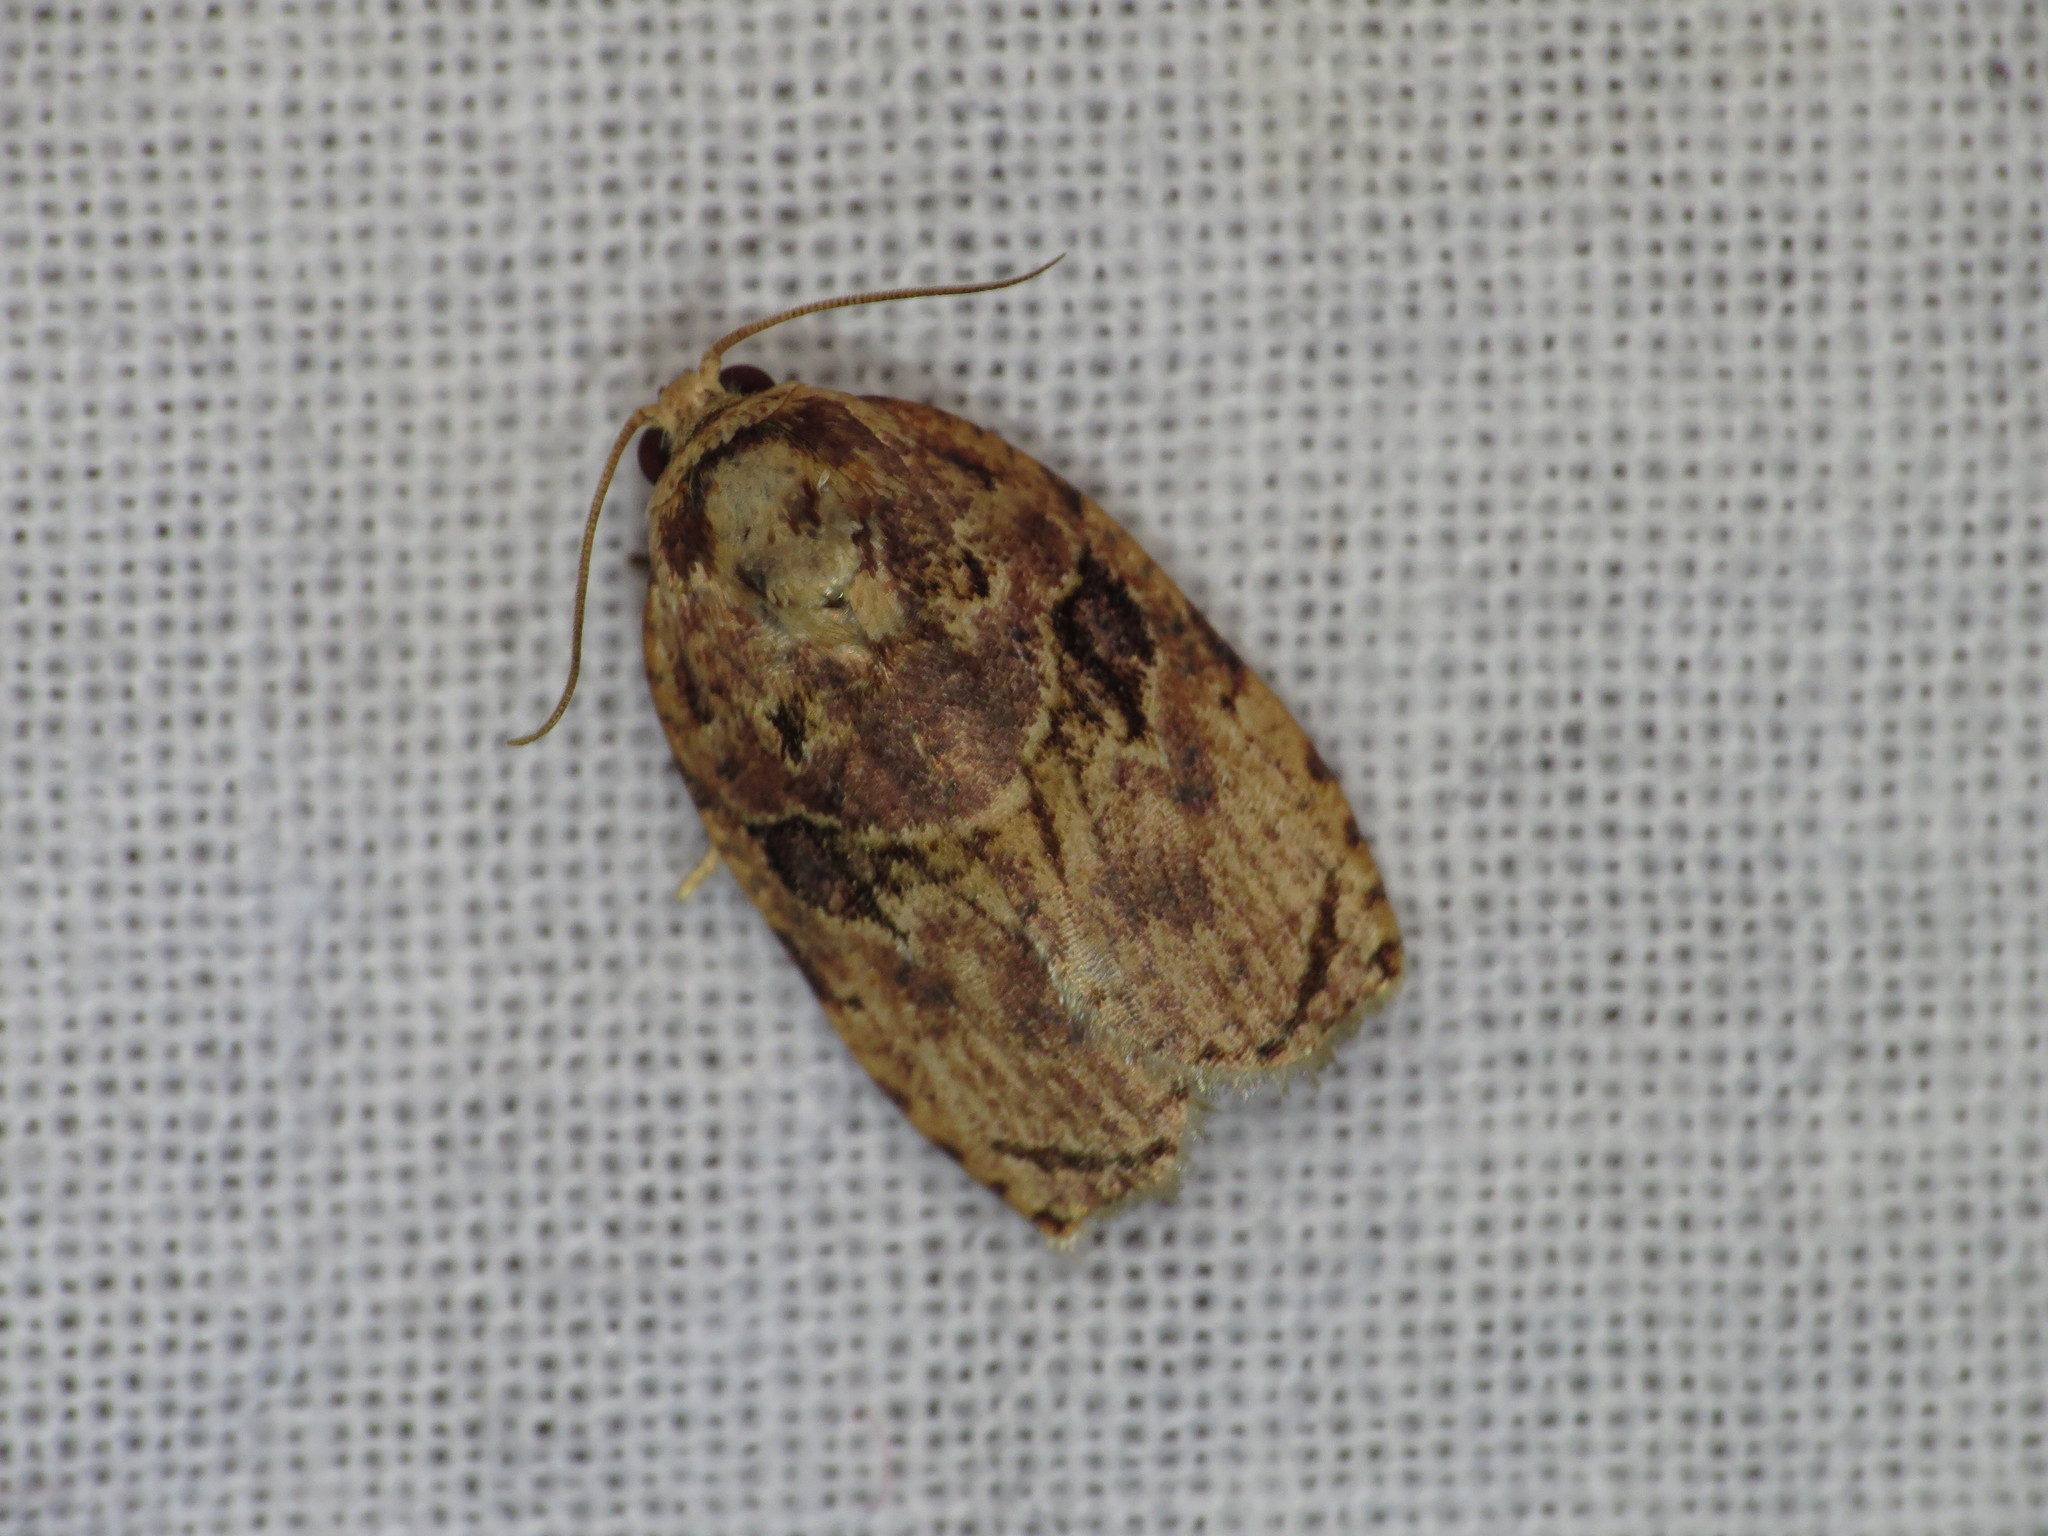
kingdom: Animalia
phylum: Arthropoda
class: Insecta
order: Lepidoptera
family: Tortricidae
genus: Homona
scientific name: Homona mermerodes
